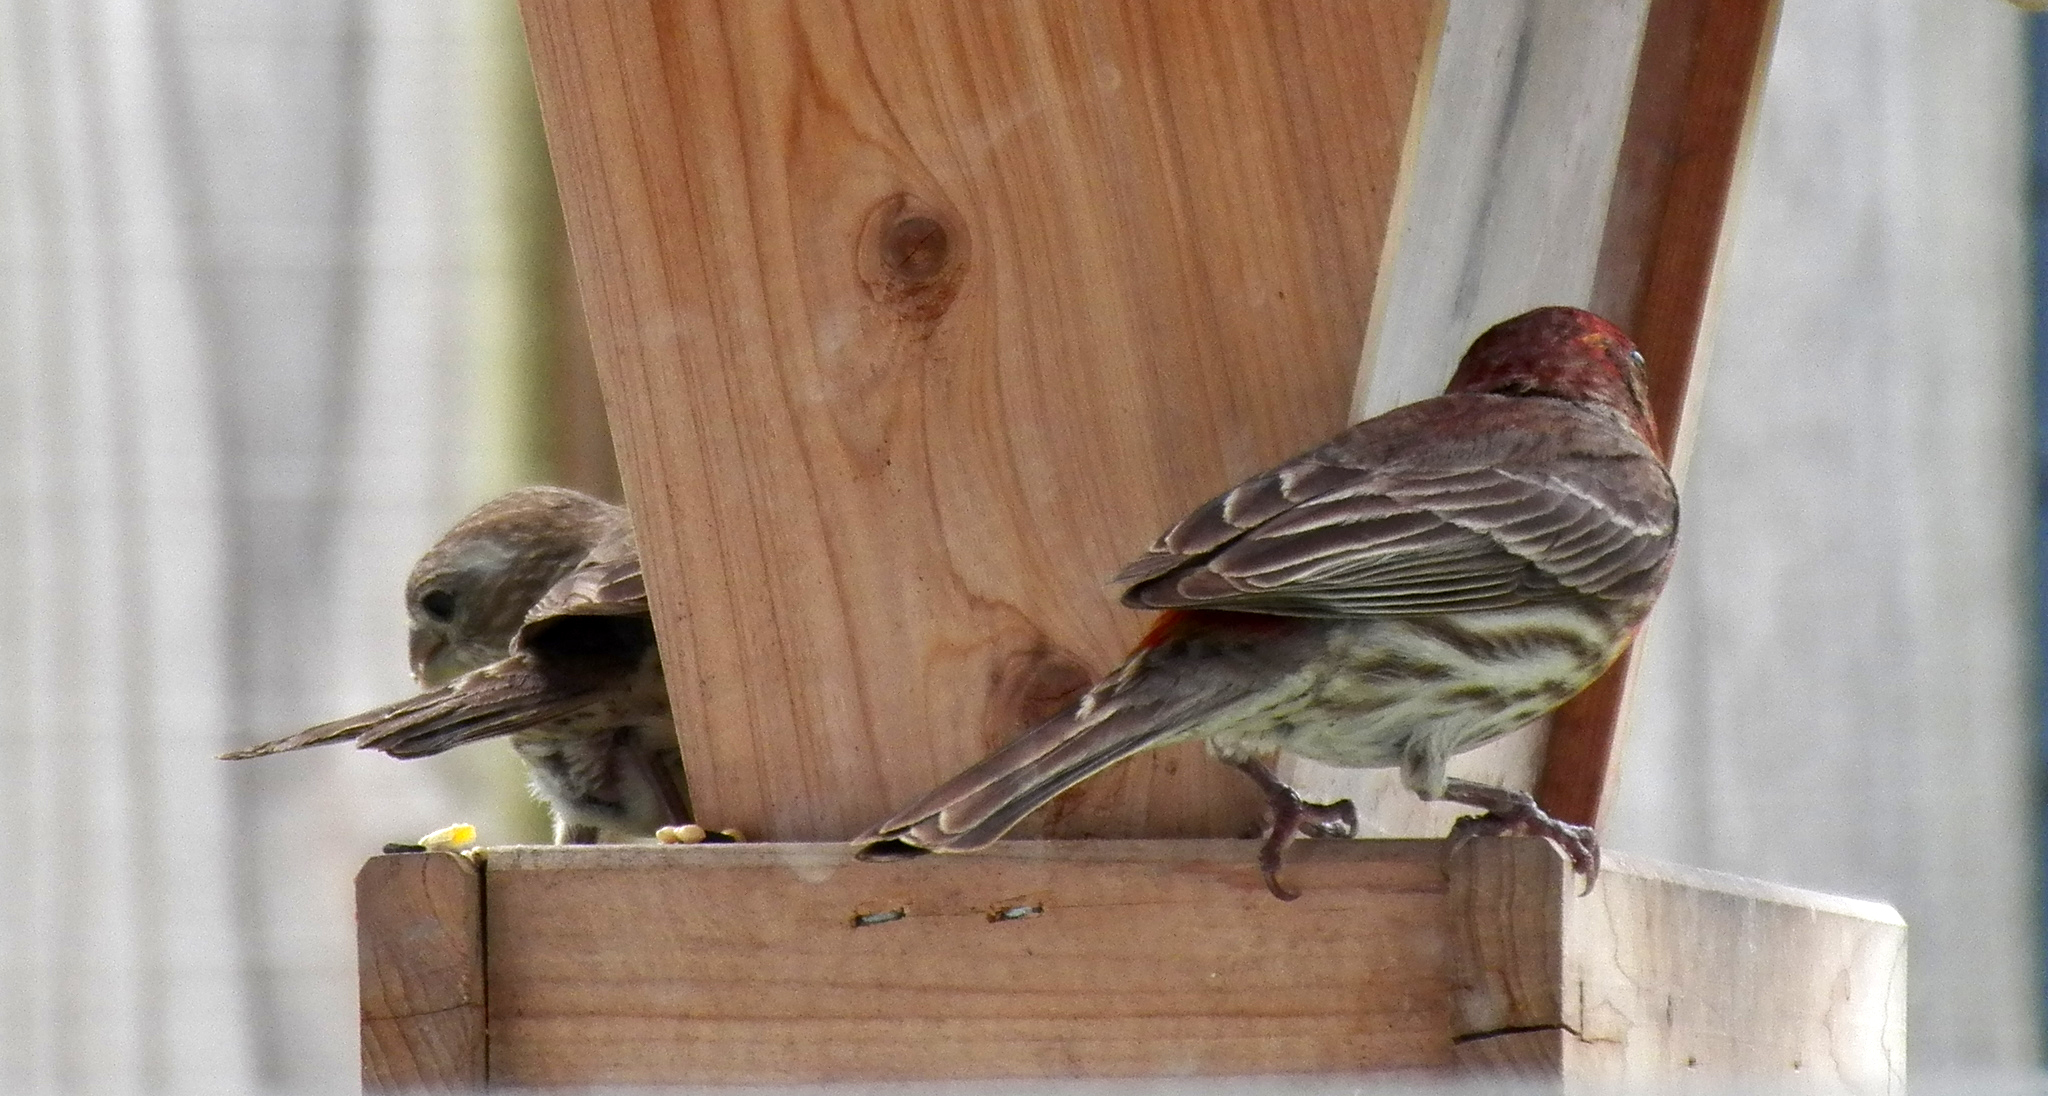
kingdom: Animalia
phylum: Chordata
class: Aves
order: Passeriformes
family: Fringillidae
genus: Haemorhous
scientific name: Haemorhous mexicanus
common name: House finch
